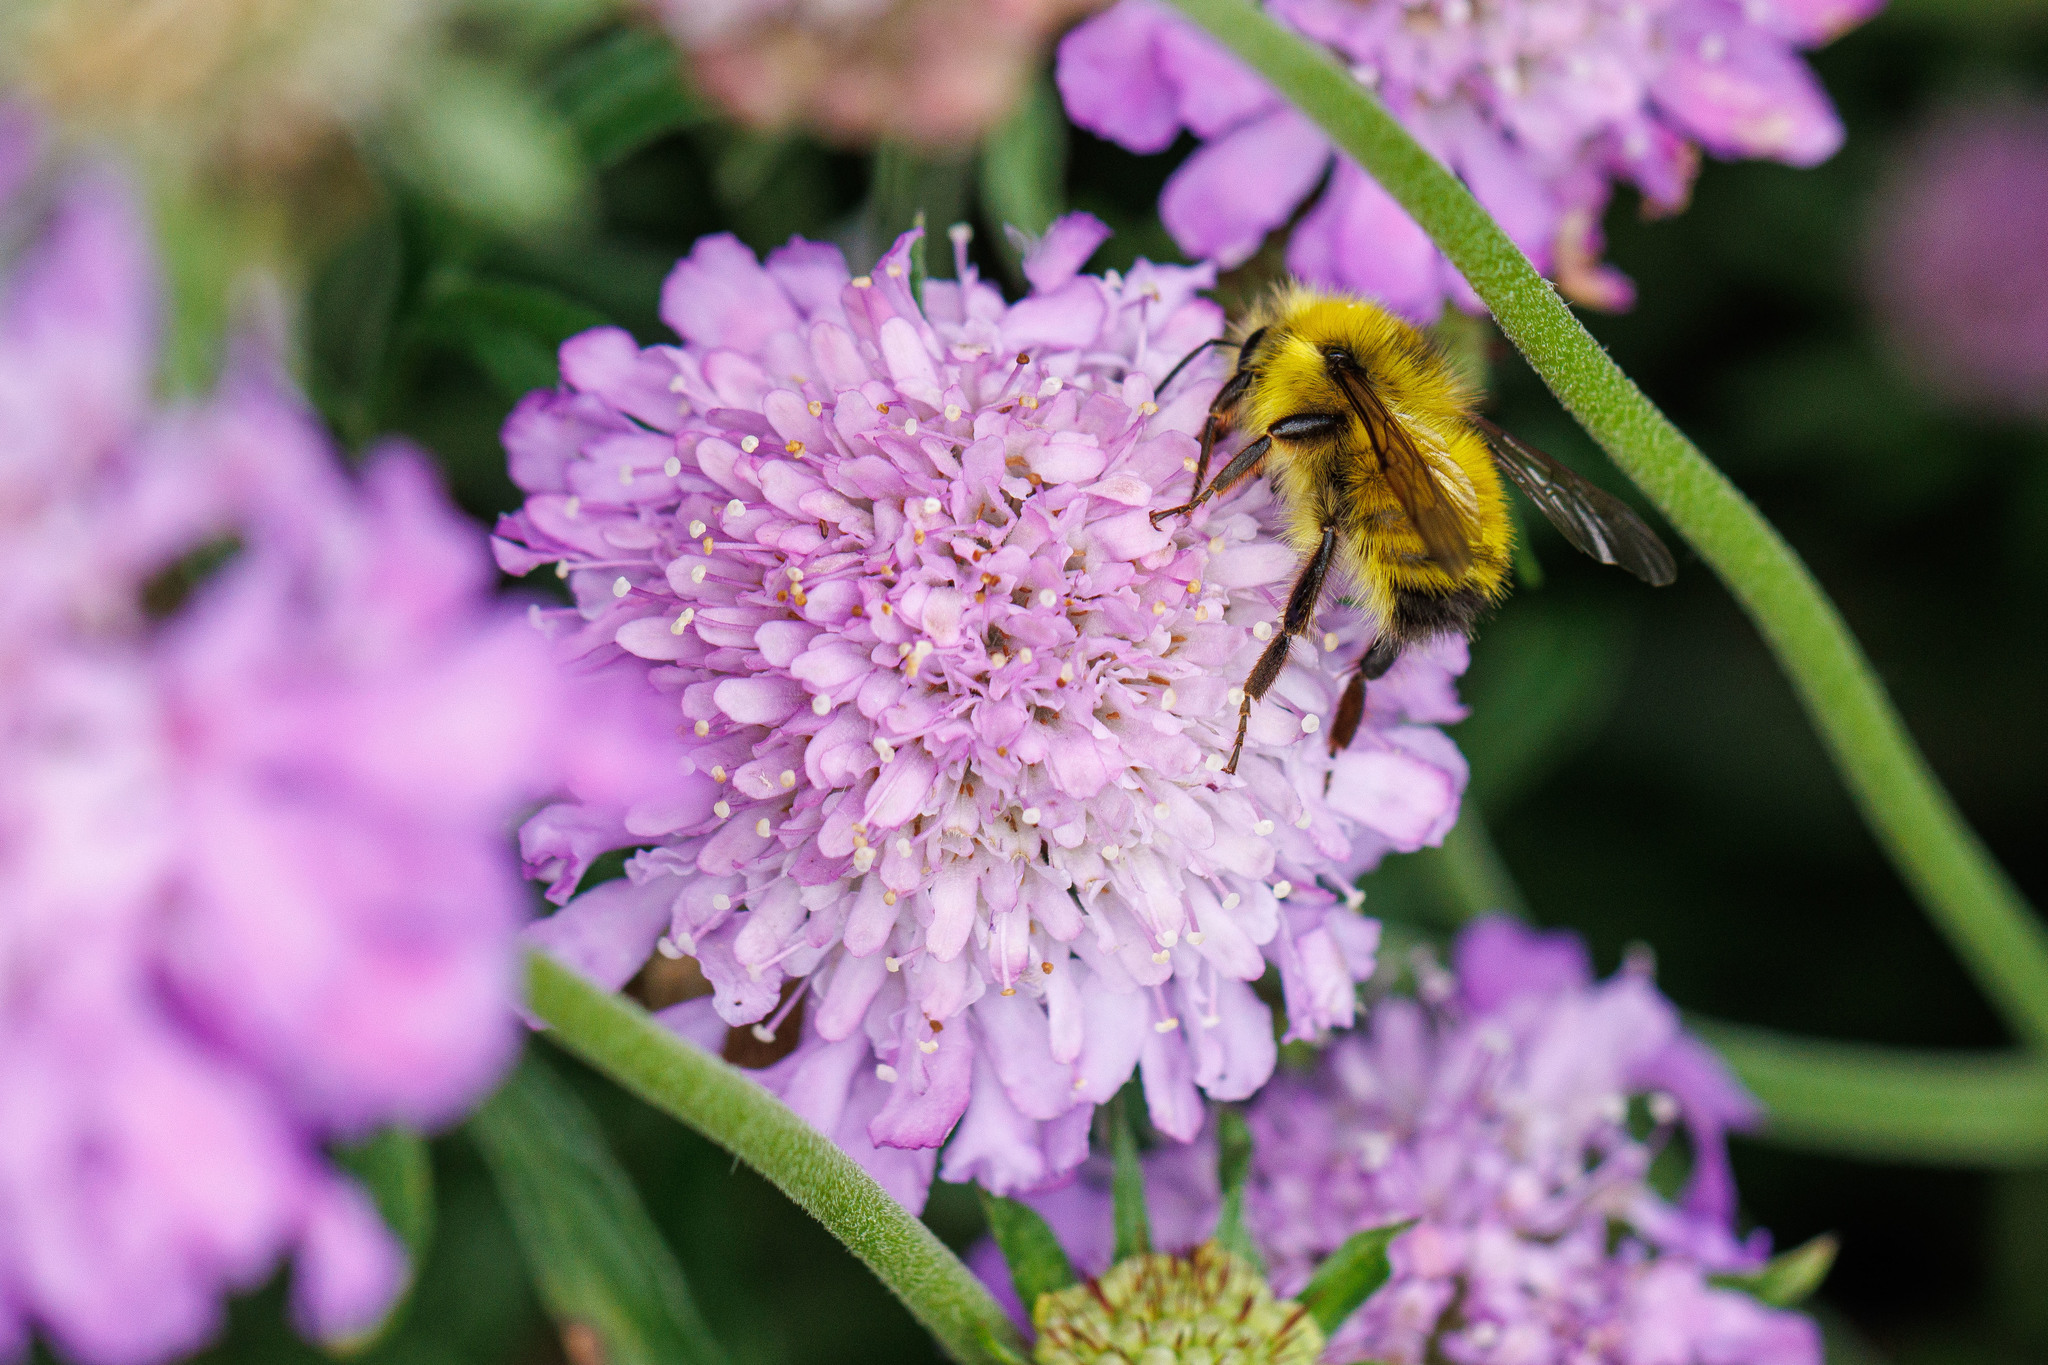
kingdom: Animalia
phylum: Arthropoda
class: Insecta
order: Hymenoptera
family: Apidae
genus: Bombus
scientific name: Bombus flavifrons
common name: Yellow head bumble bee
